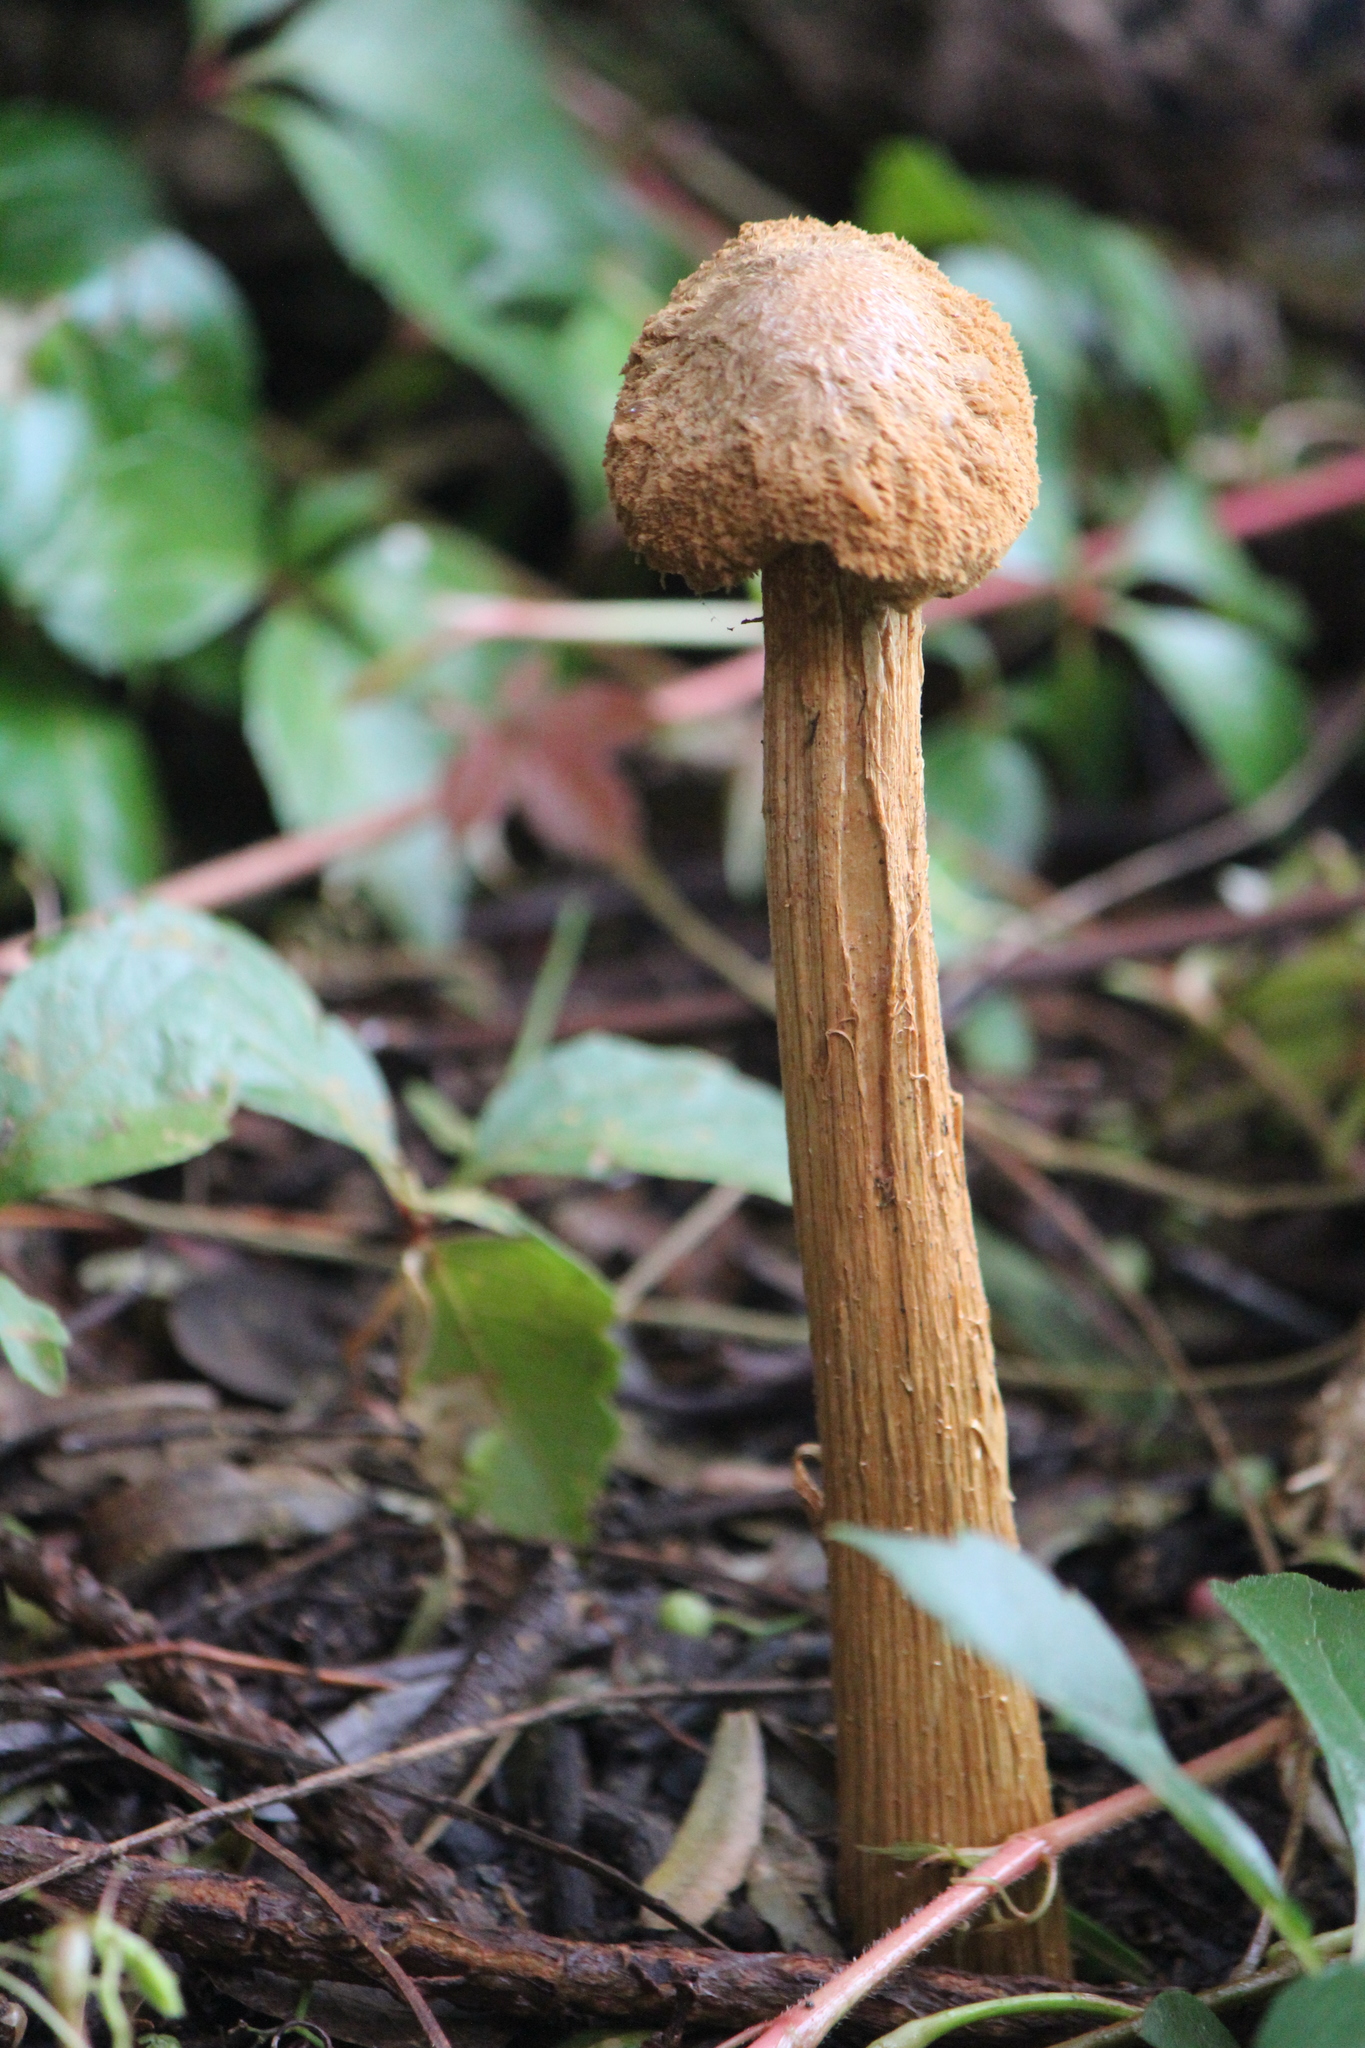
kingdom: Fungi
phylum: Basidiomycota
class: Agaricomycetes
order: Agaricales
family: Agaricaceae
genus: Battarrea
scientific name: Battarrea phalloides
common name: Sandy stiltball
